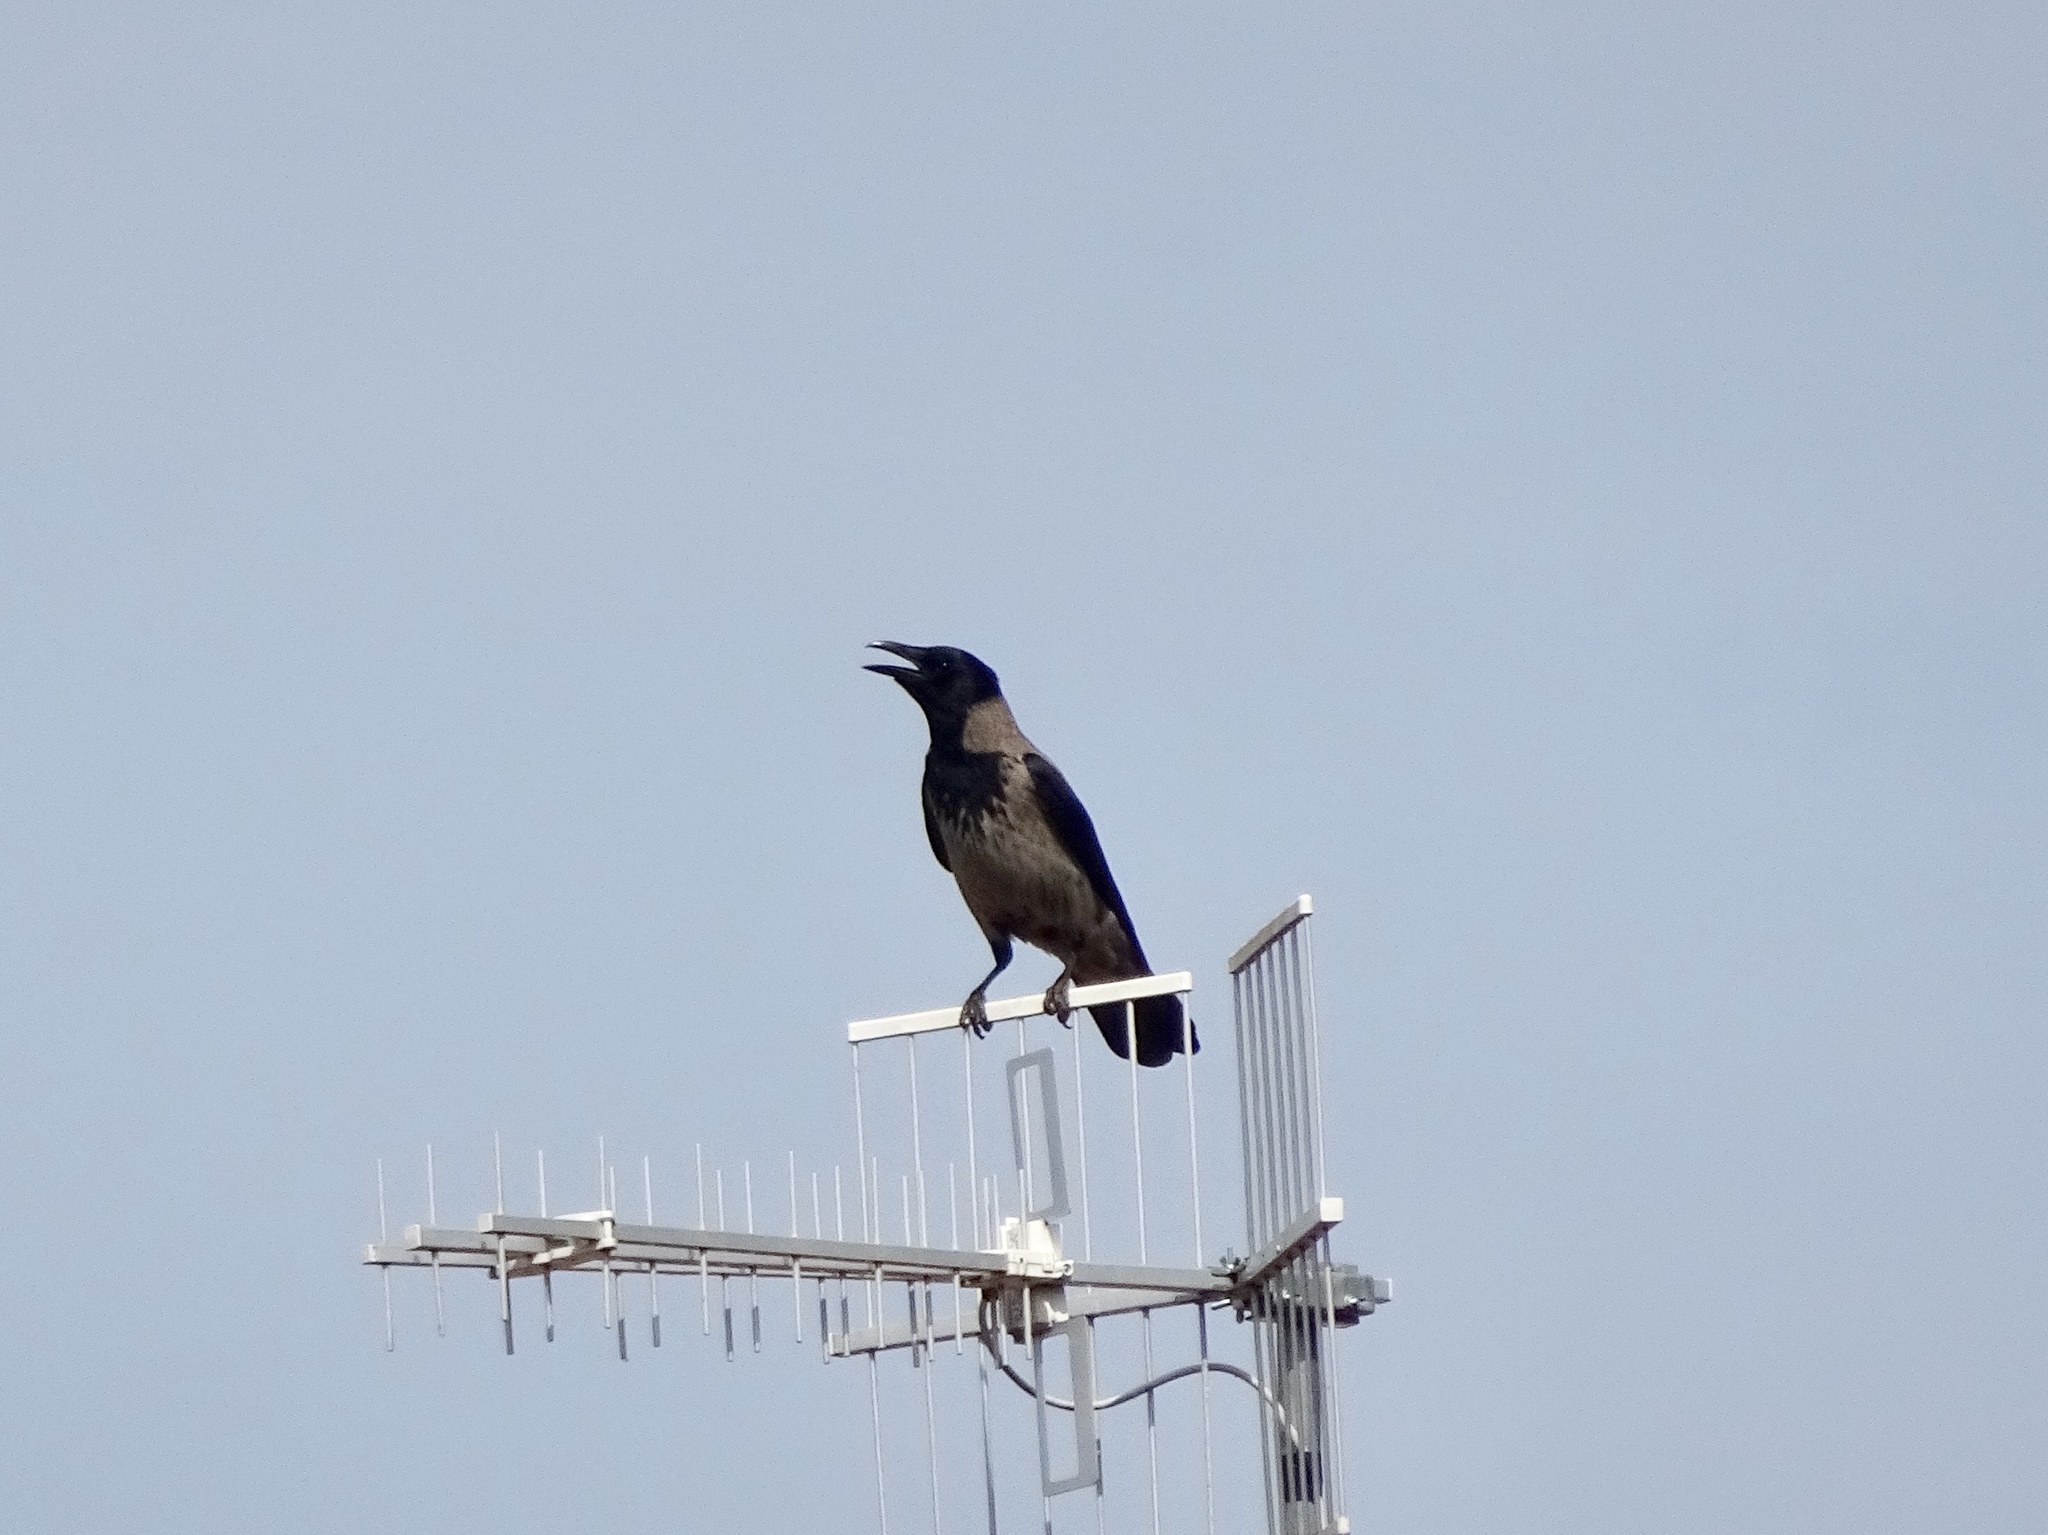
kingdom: Animalia
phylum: Chordata
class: Aves
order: Passeriformes
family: Corvidae
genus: Corvus
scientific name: Corvus cornix
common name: Hooded crow
